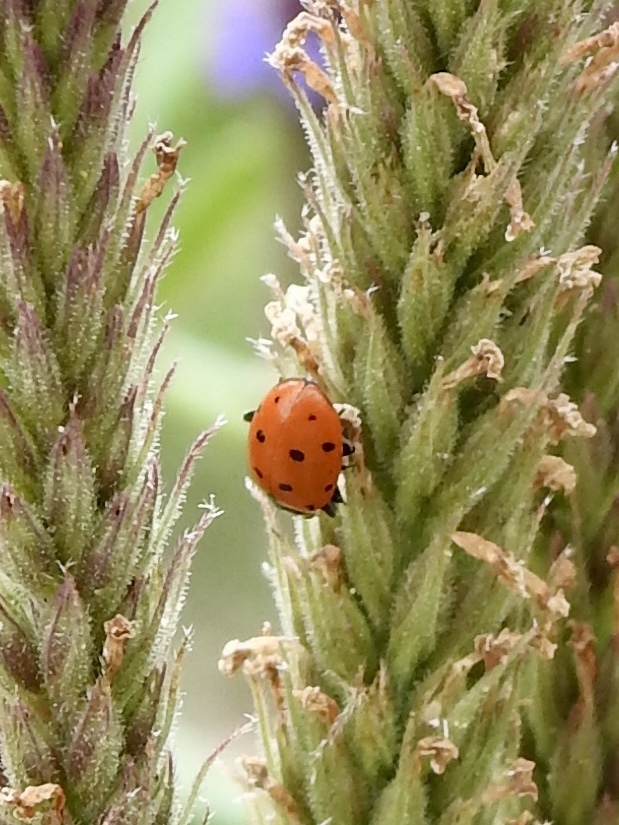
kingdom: Animalia
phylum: Arthropoda
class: Insecta
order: Coleoptera
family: Coccinellidae
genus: Hippodamia
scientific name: Hippodamia convergens
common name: Convergent lady beetle
